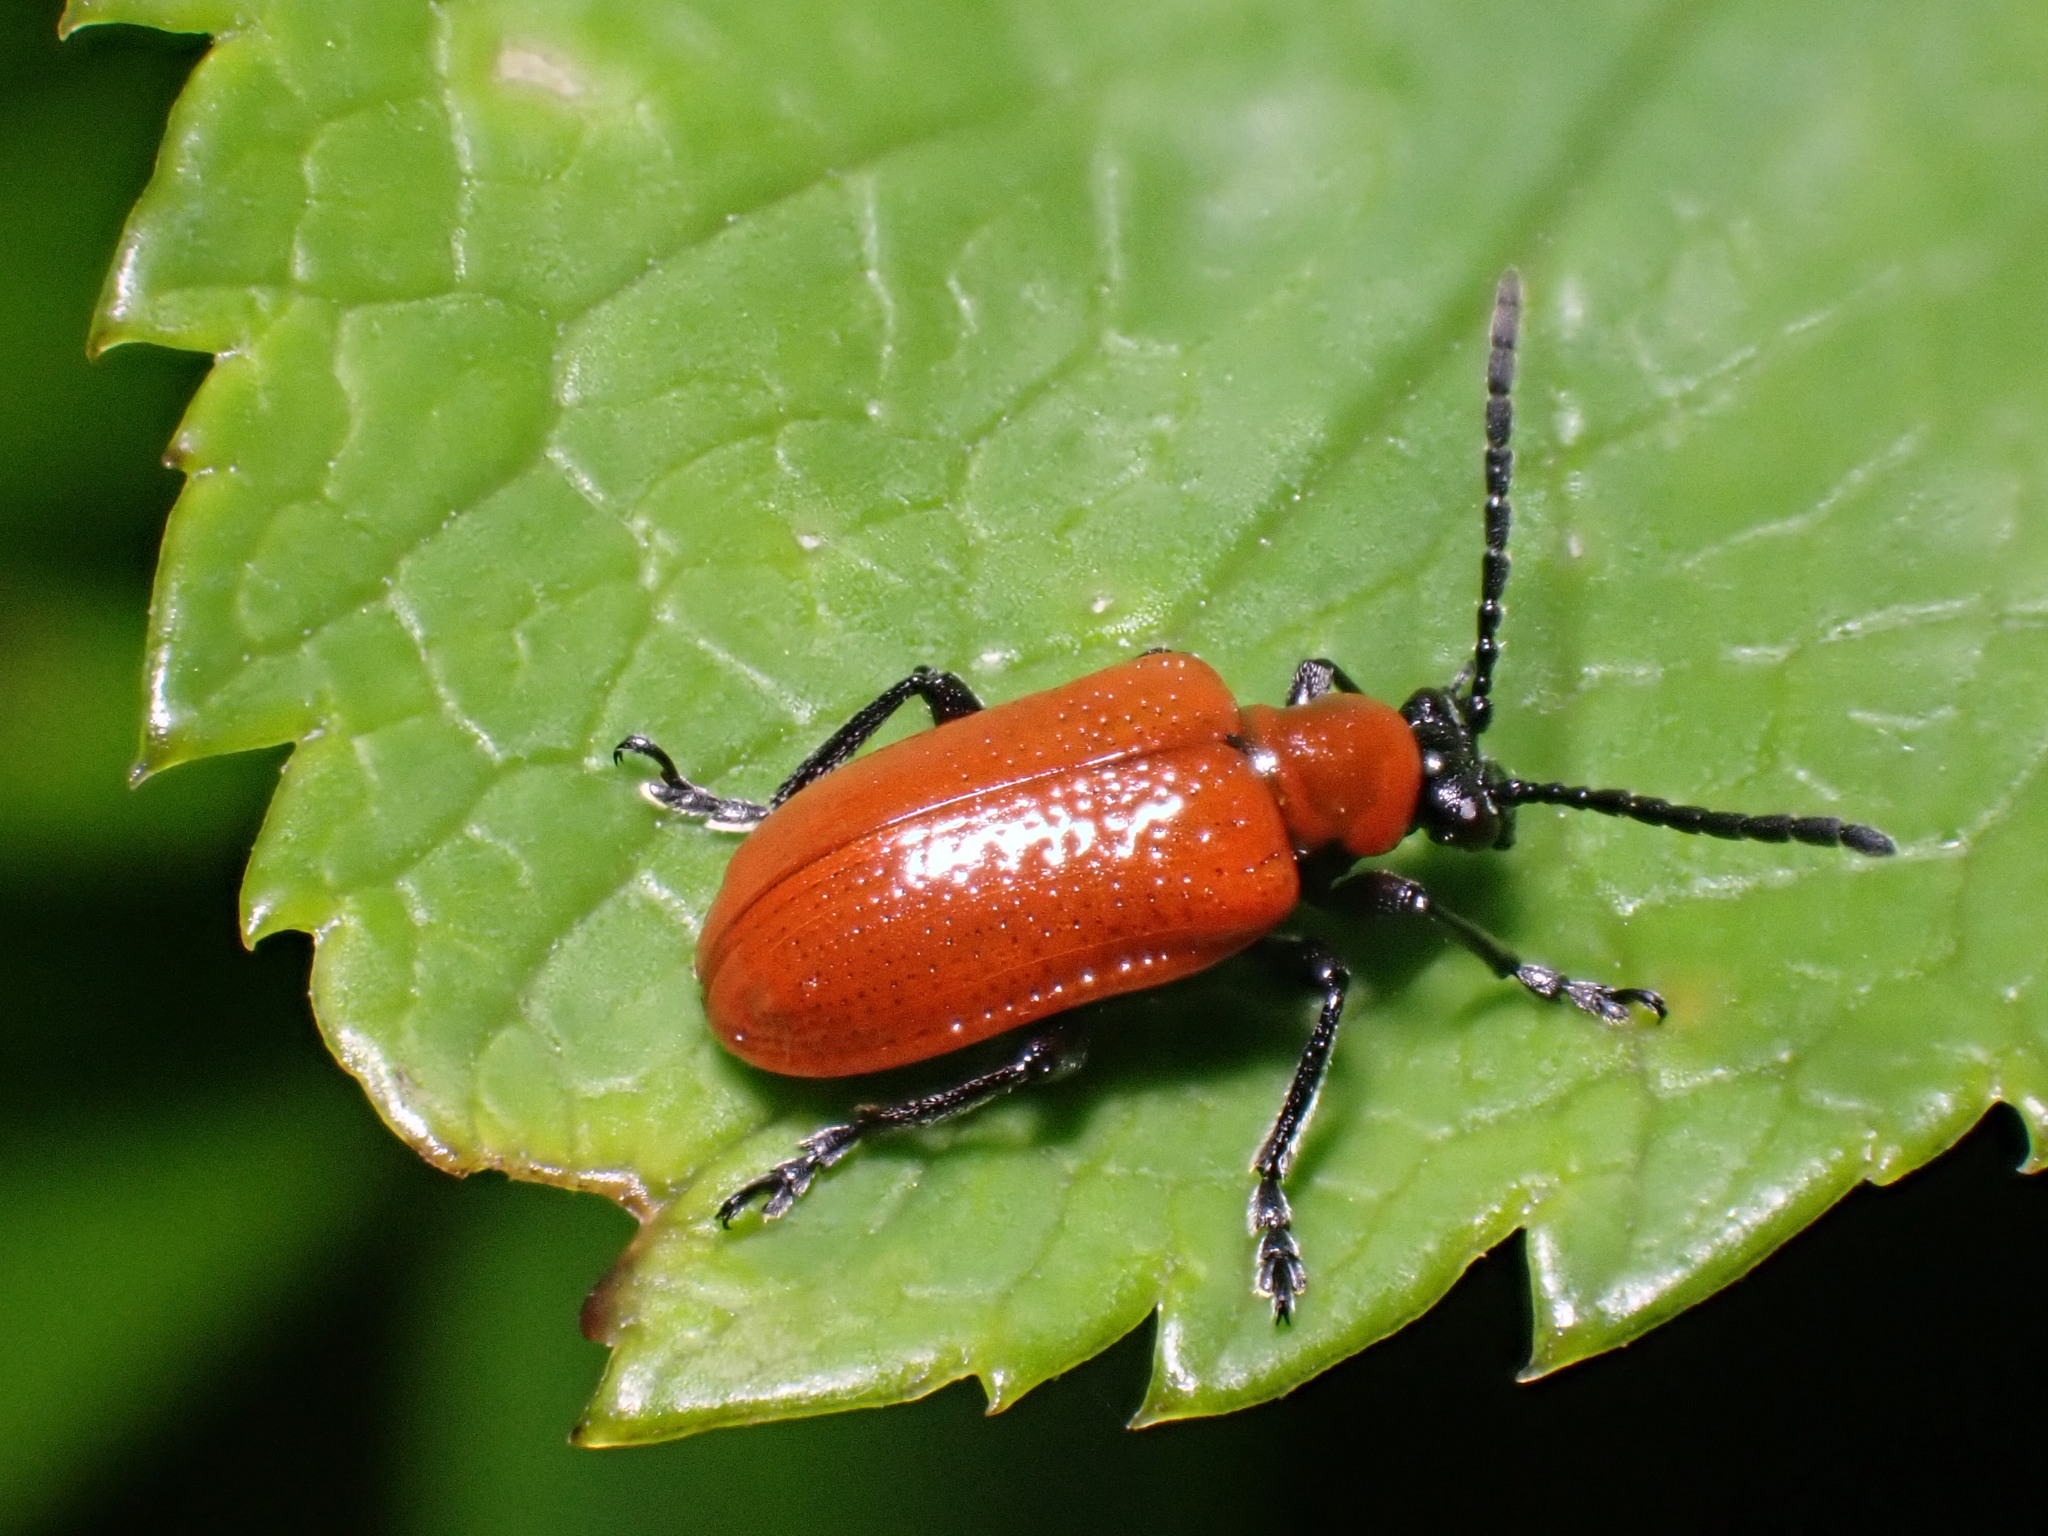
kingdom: Animalia
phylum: Arthropoda
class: Insecta
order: Coleoptera
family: Chrysomelidae
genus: Lilioceris
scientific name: Lilioceris lilii
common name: Lily beetle
